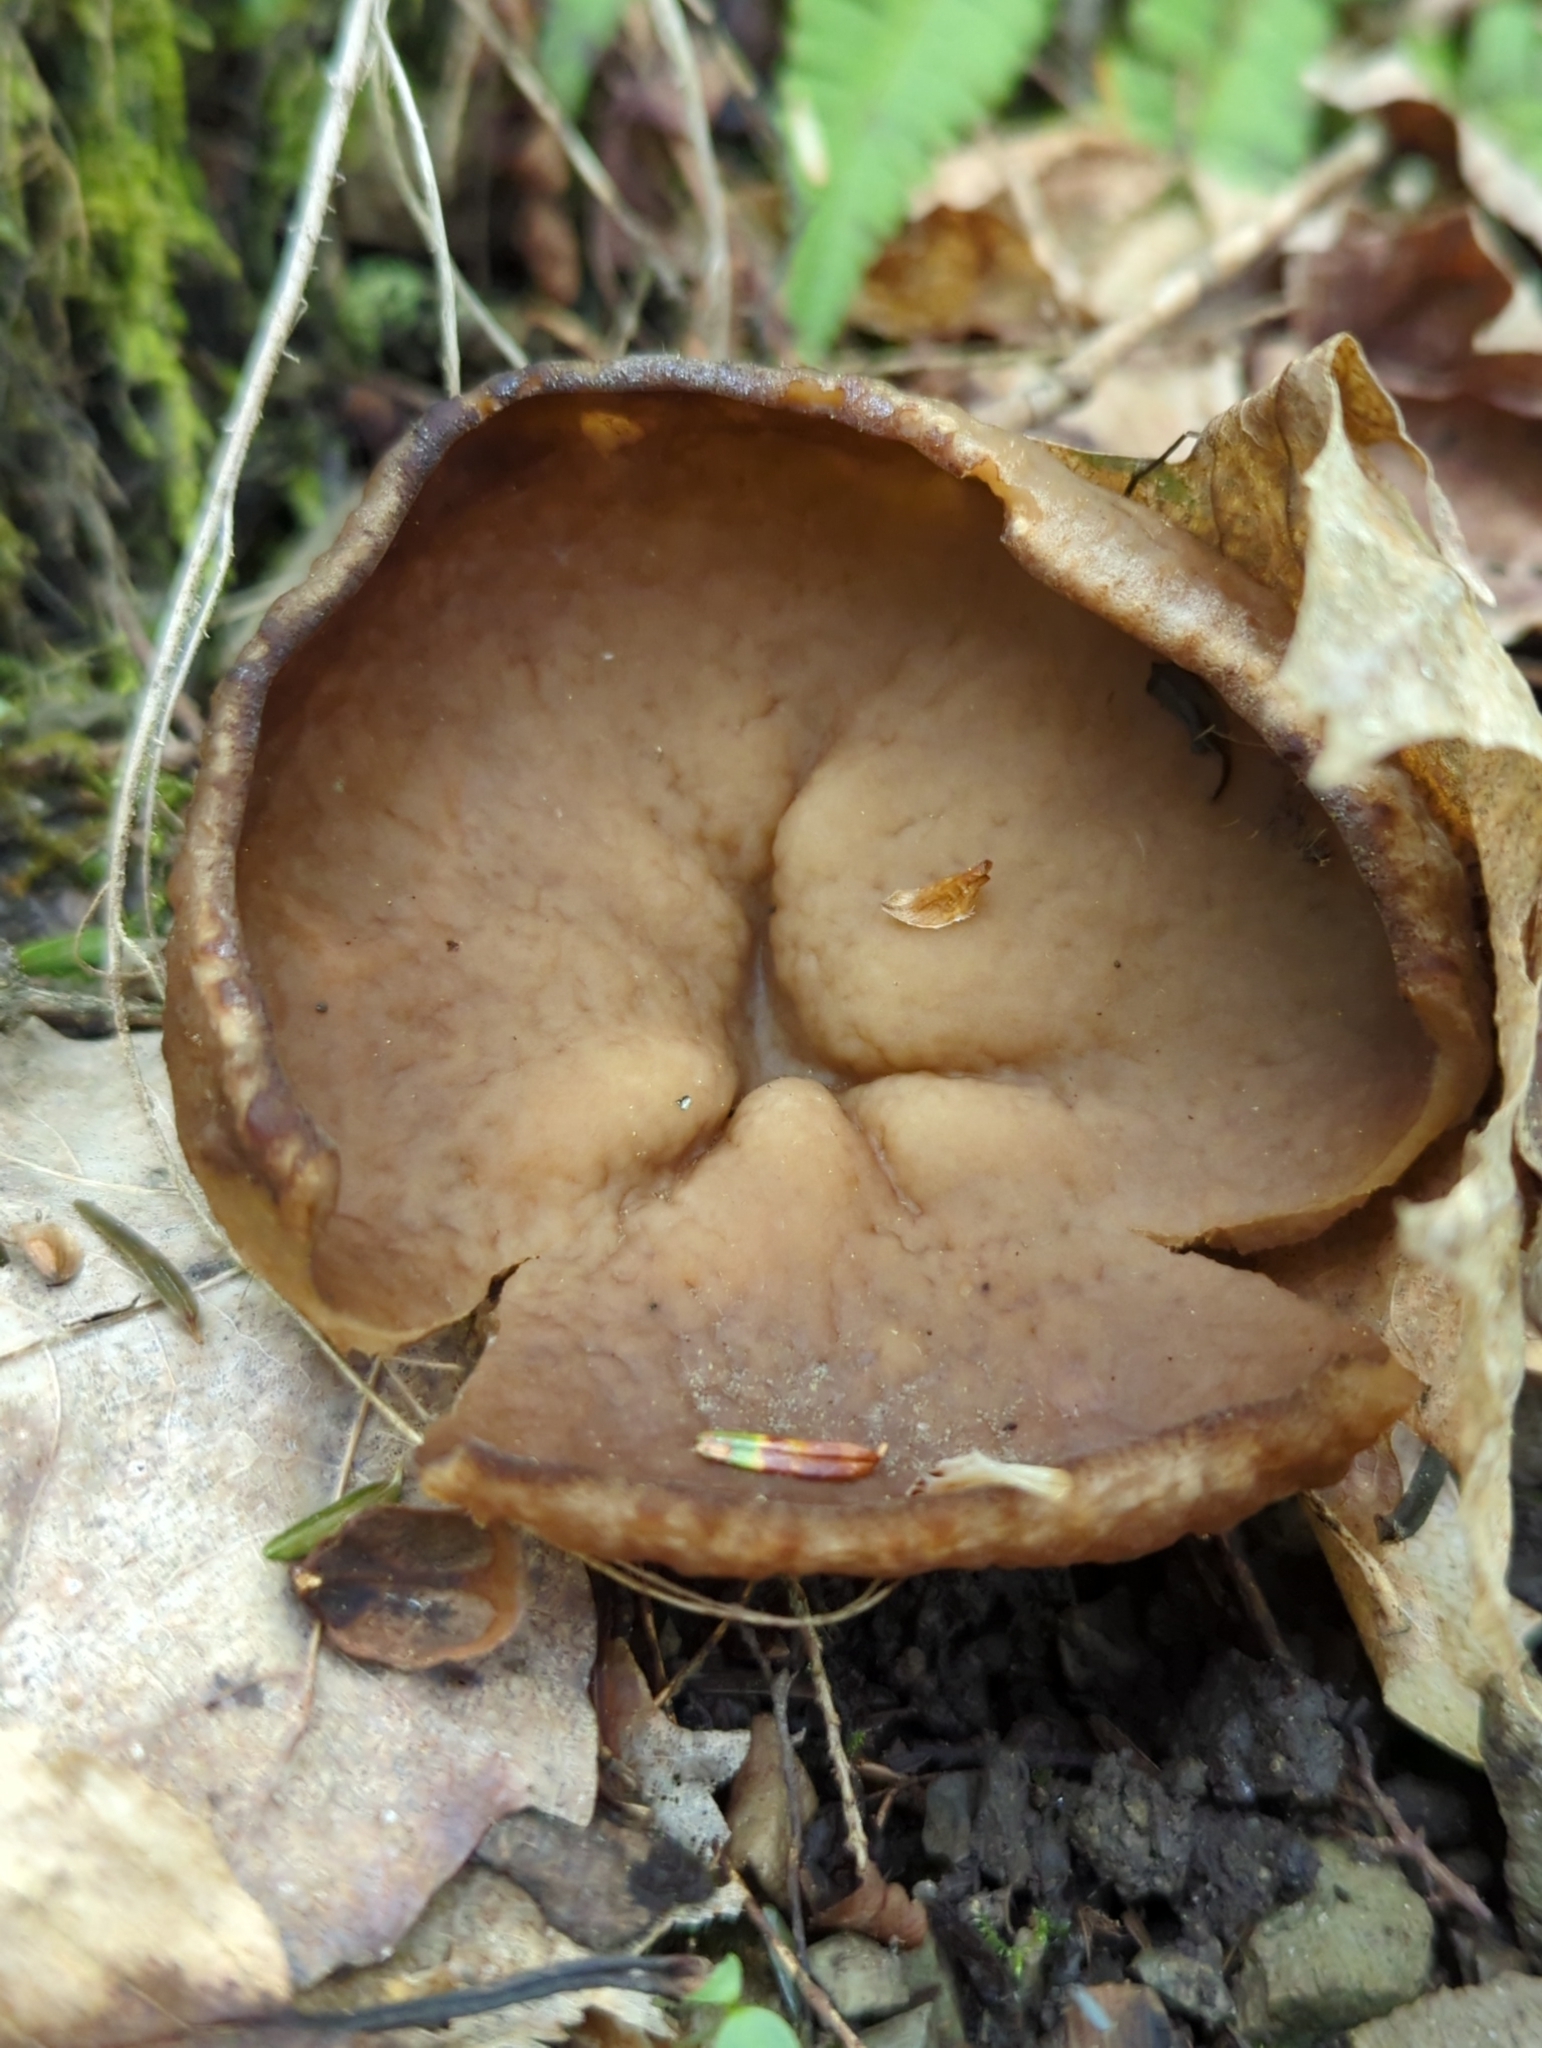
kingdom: Fungi
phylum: Ascomycota
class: Pezizomycetes
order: Pezizales
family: Morchellaceae
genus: Disciotis
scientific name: Disciotis venosa
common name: Bleach cup
